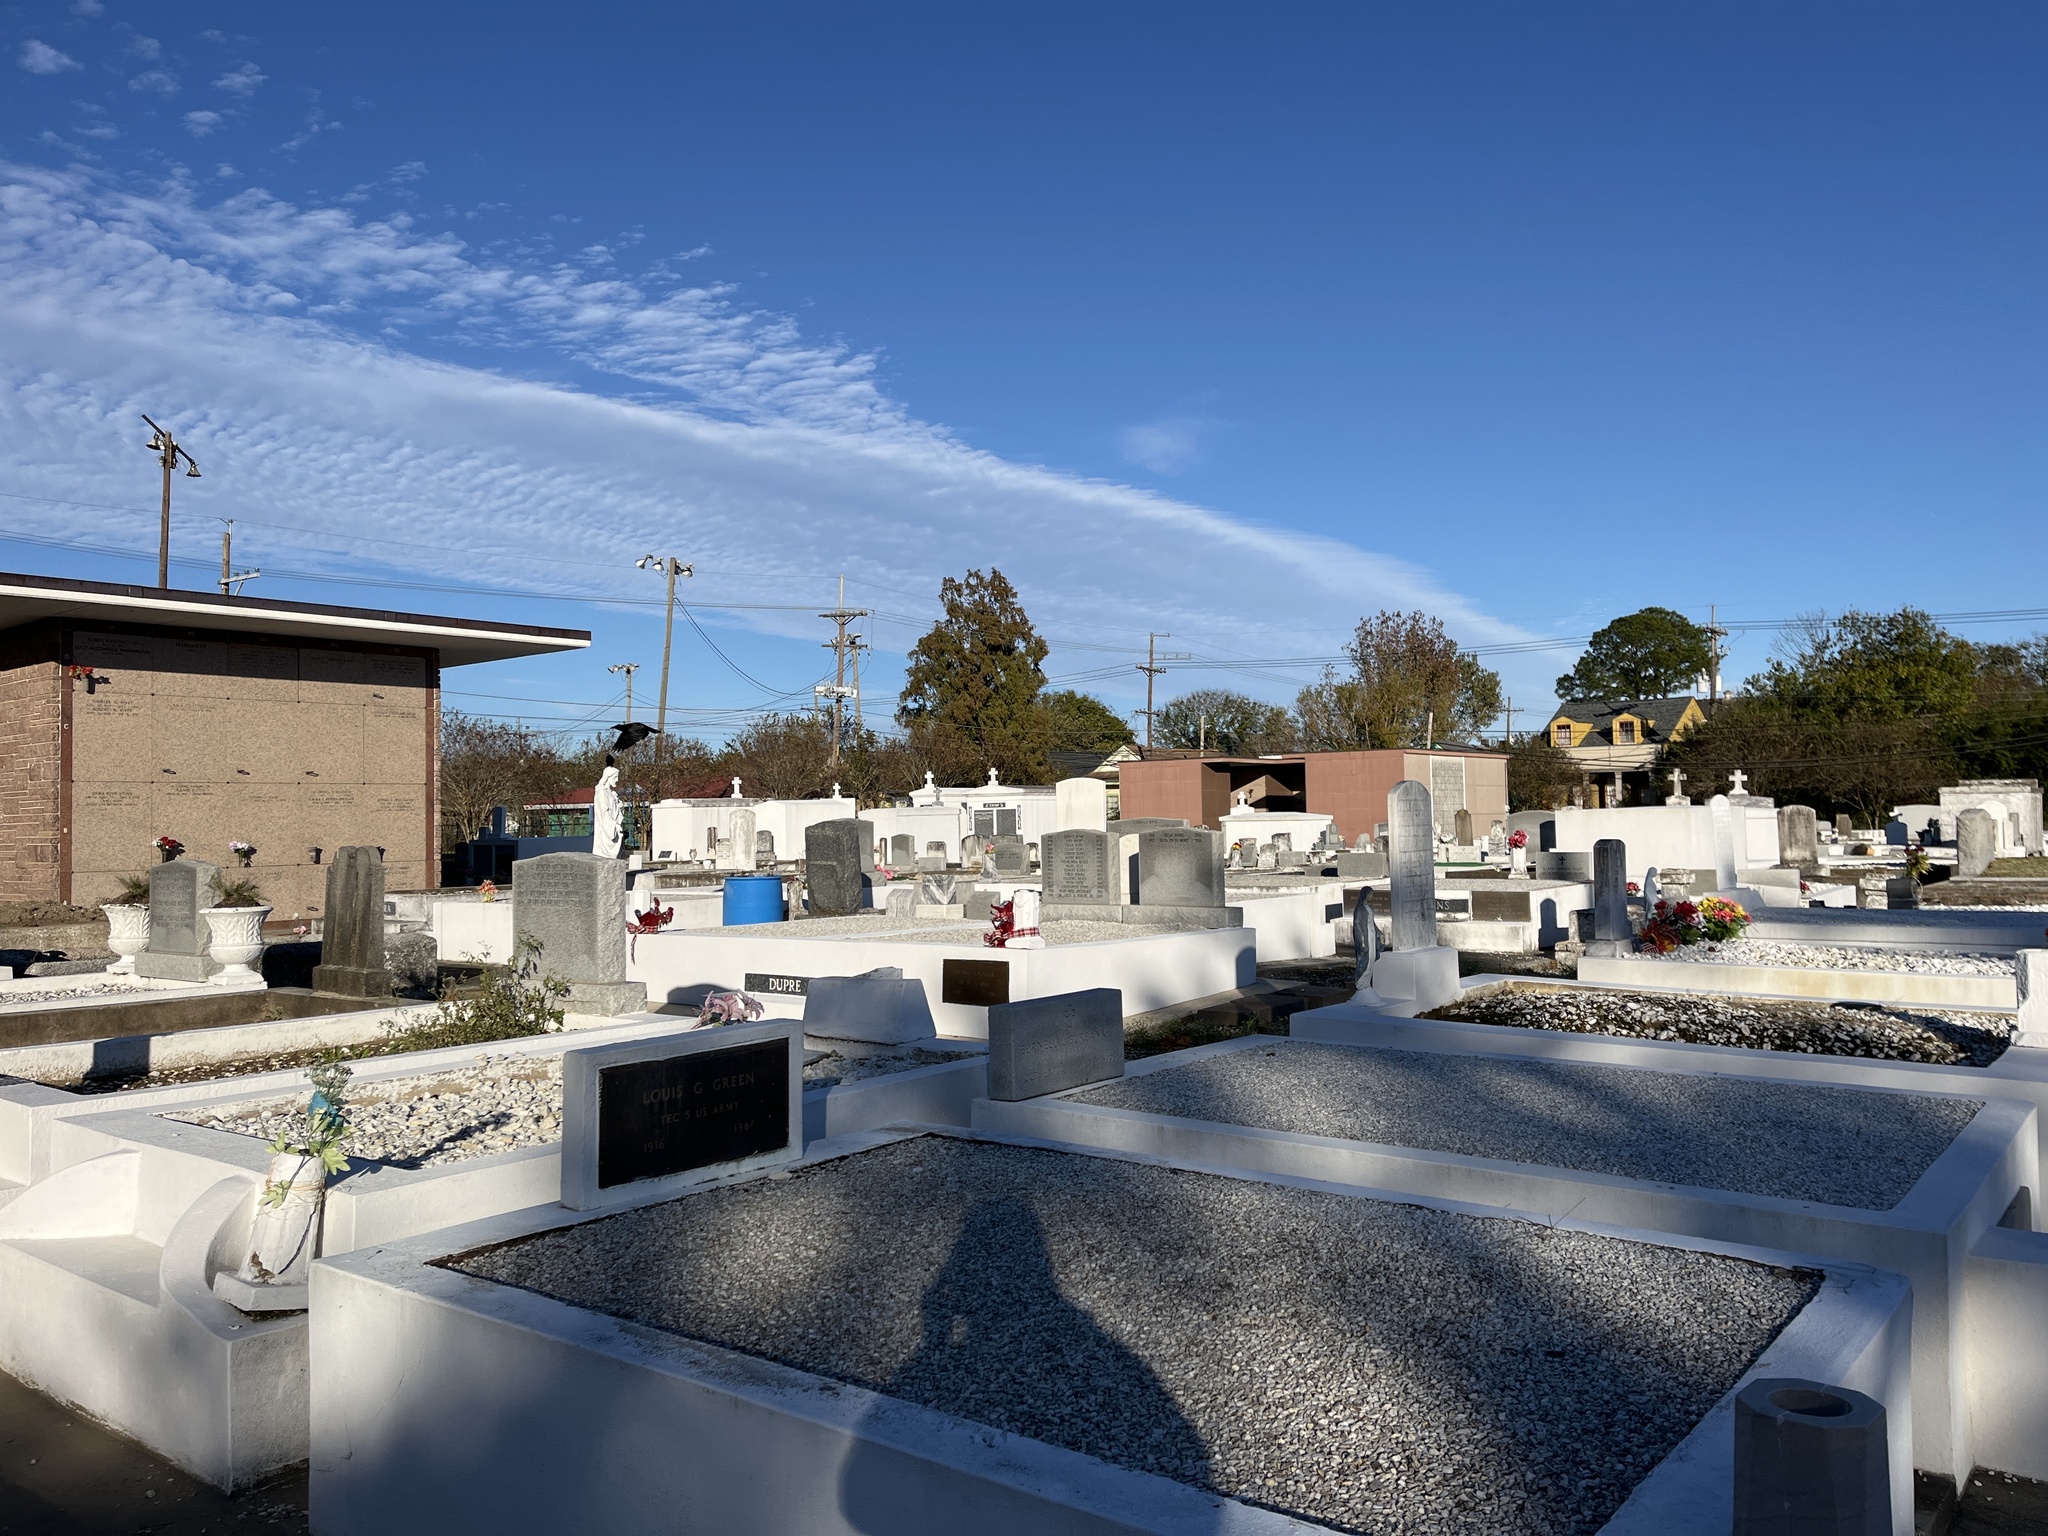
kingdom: Animalia
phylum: Chordata
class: Aves
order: Passeriformes
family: Corvidae
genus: Corvus
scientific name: Corvus brachyrhynchos
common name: American crow
